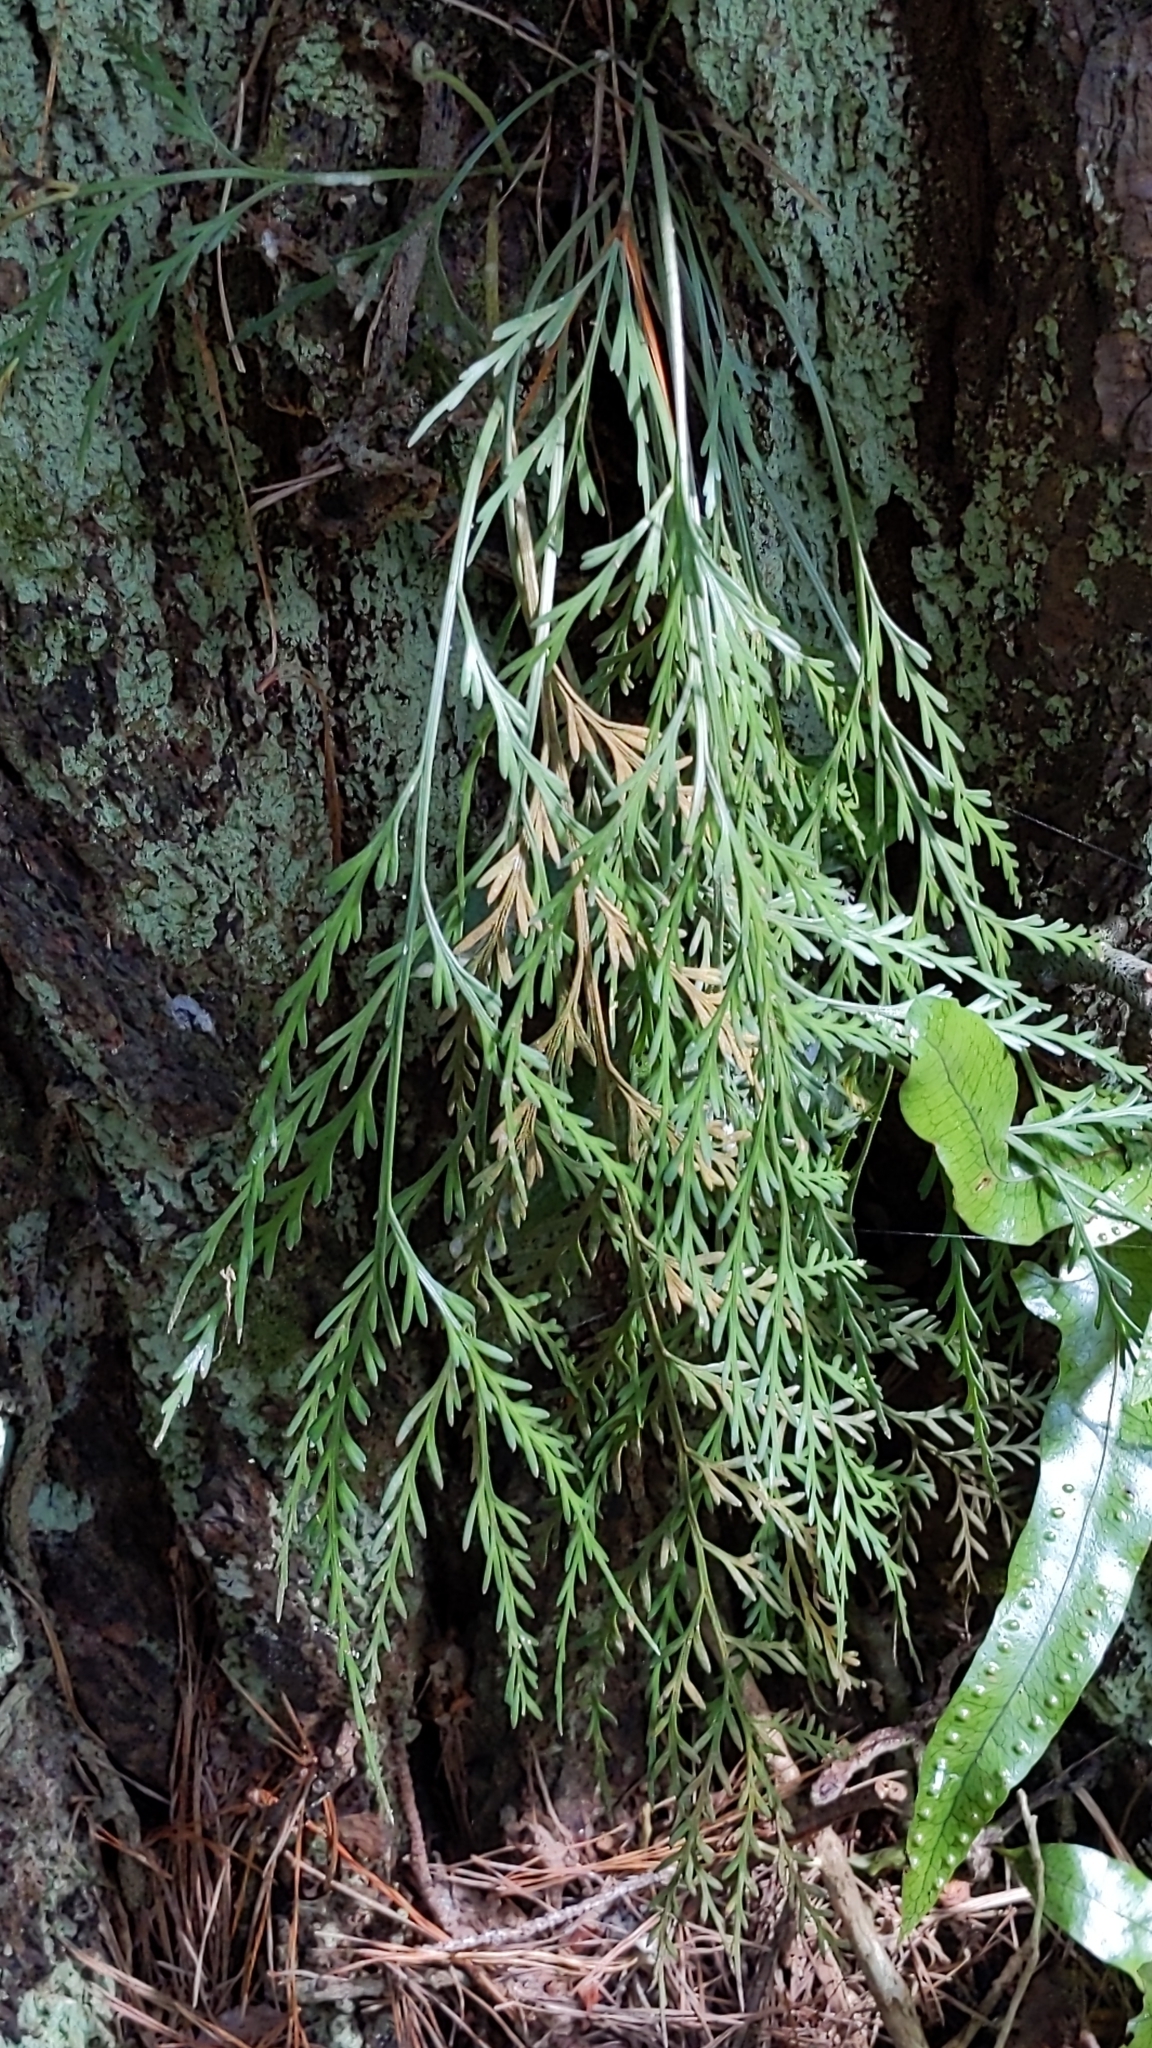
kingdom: Plantae
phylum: Tracheophyta
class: Polypodiopsida
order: Polypodiales
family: Aspleniaceae
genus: Asplenium
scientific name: Asplenium flaccidum
